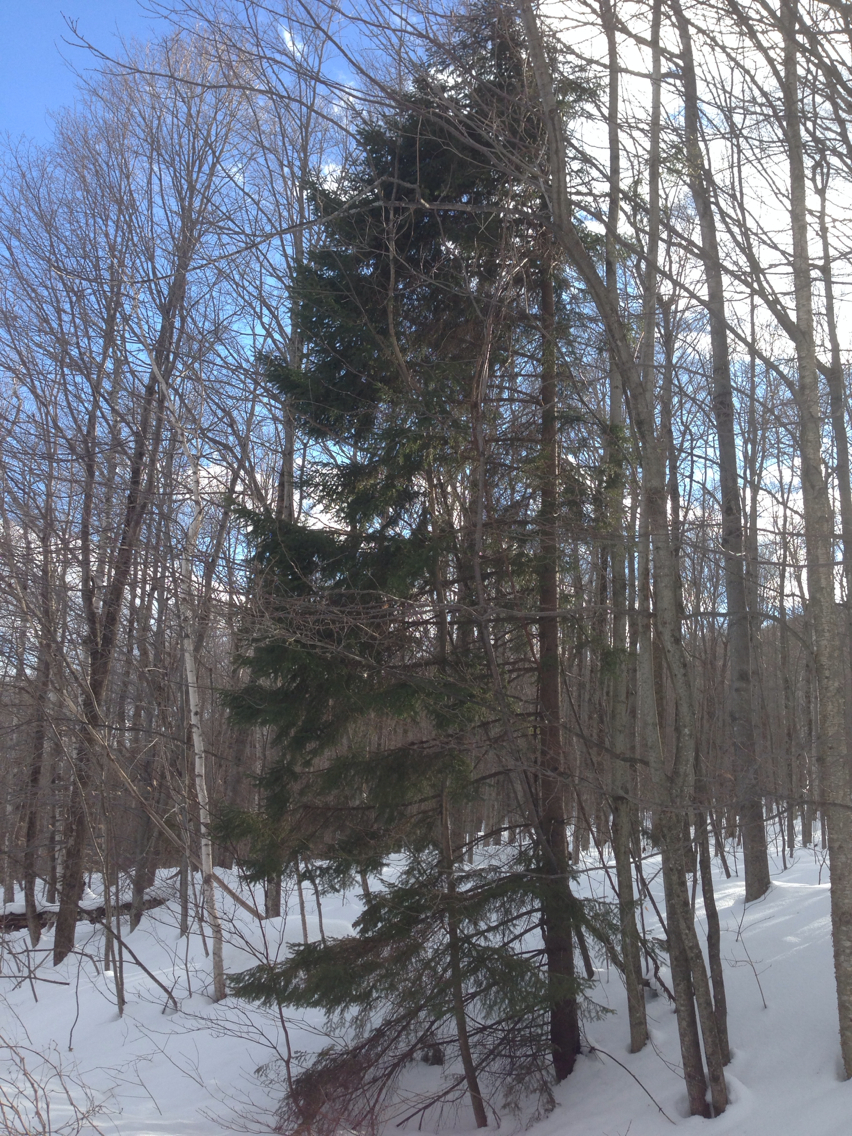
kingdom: Plantae
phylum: Tracheophyta
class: Pinopsida
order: Pinales
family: Pinaceae
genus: Picea
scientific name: Picea rubens
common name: Red spruce
